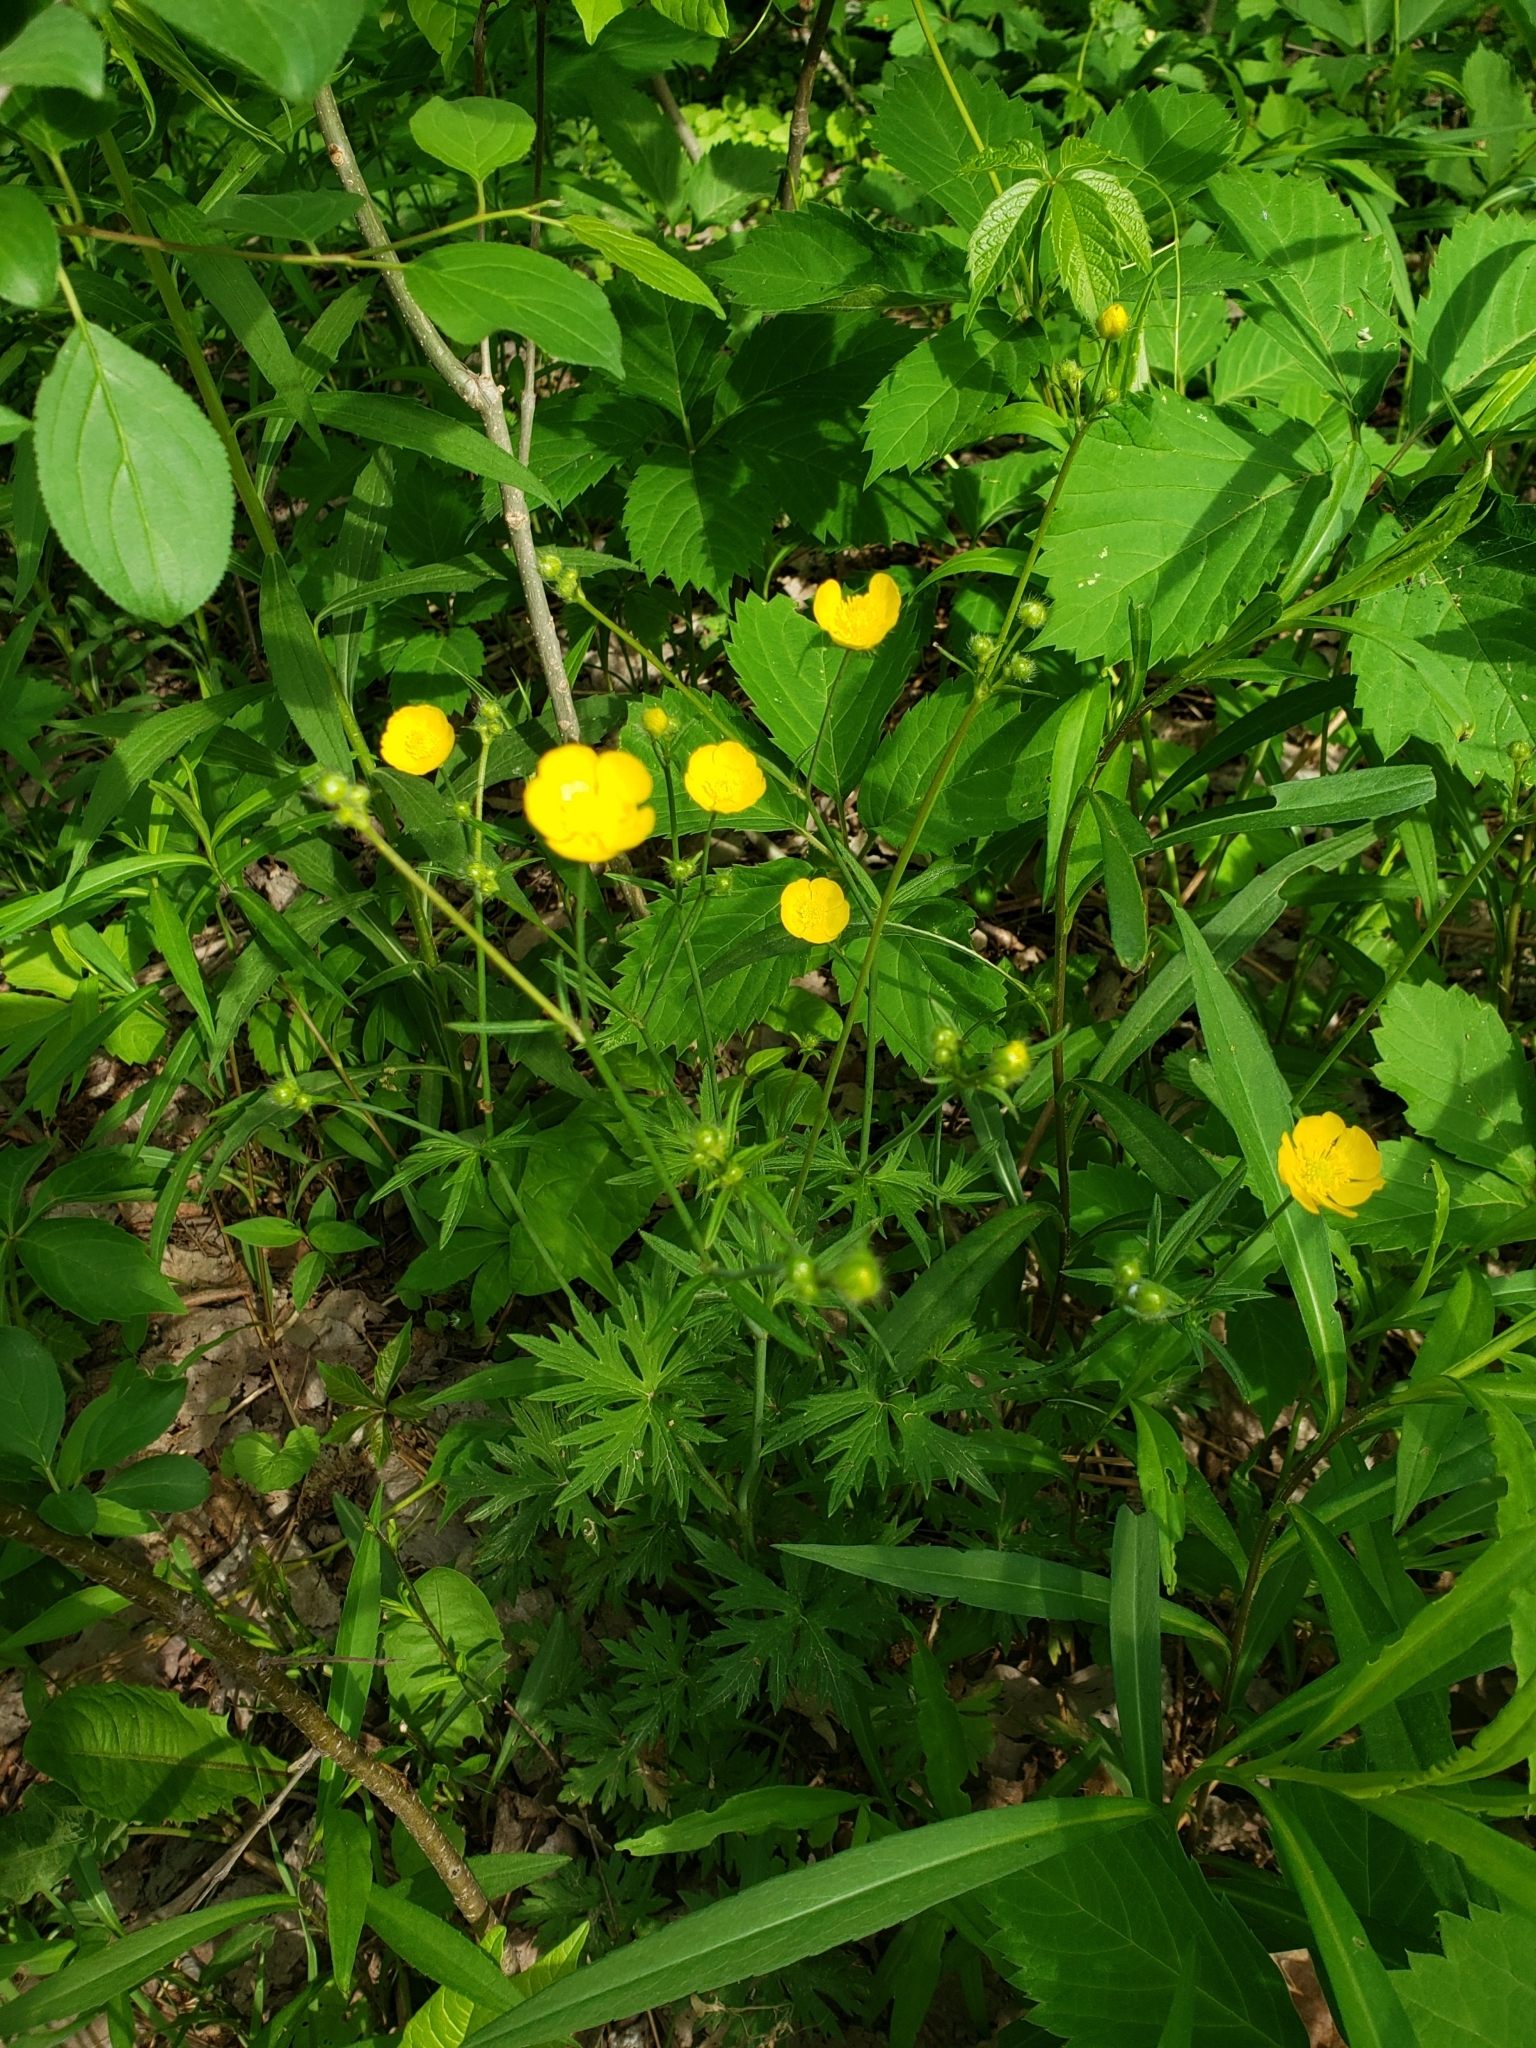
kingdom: Plantae
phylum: Tracheophyta
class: Magnoliopsida
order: Ranunculales
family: Ranunculaceae
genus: Ranunculus
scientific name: Ranunculus acris
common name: Meadow buttercup
